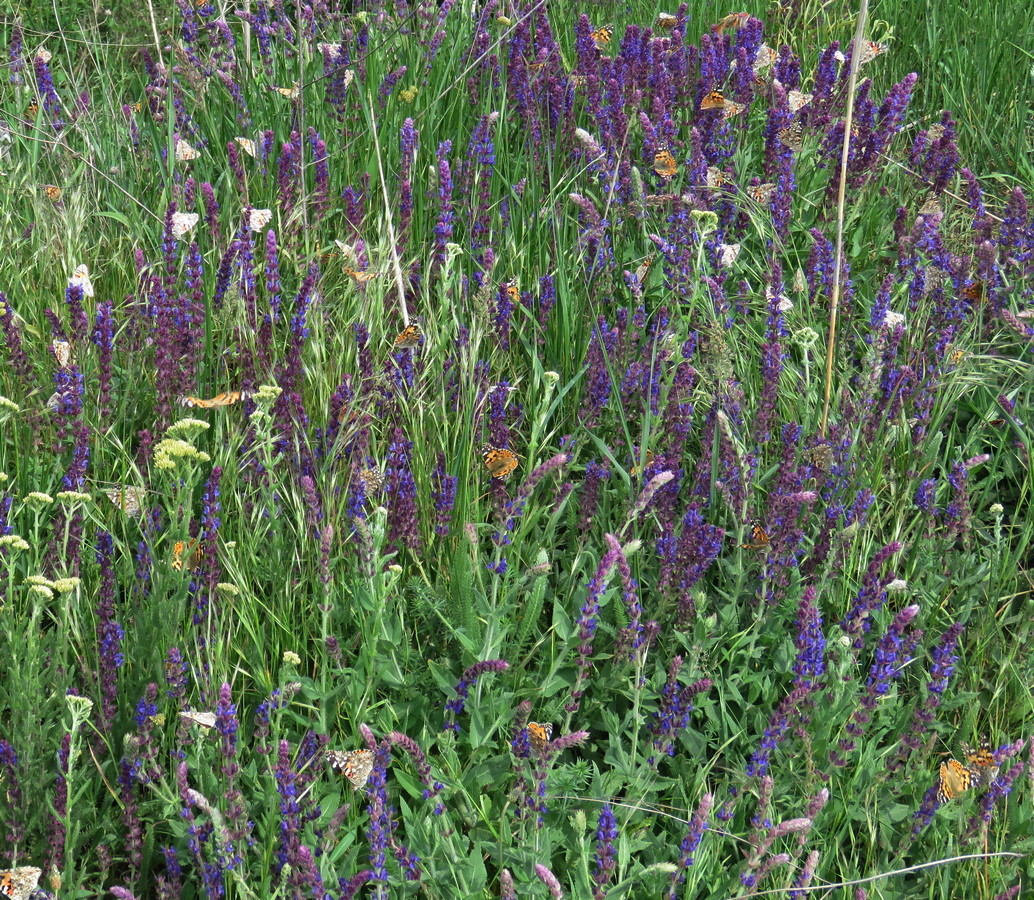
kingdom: Plantae
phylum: Tracheophyta
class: Magnoliopsida
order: Lamiales
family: Lamiaceae
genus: Salvia
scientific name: Salvia nemorosa
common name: Balkan clary
